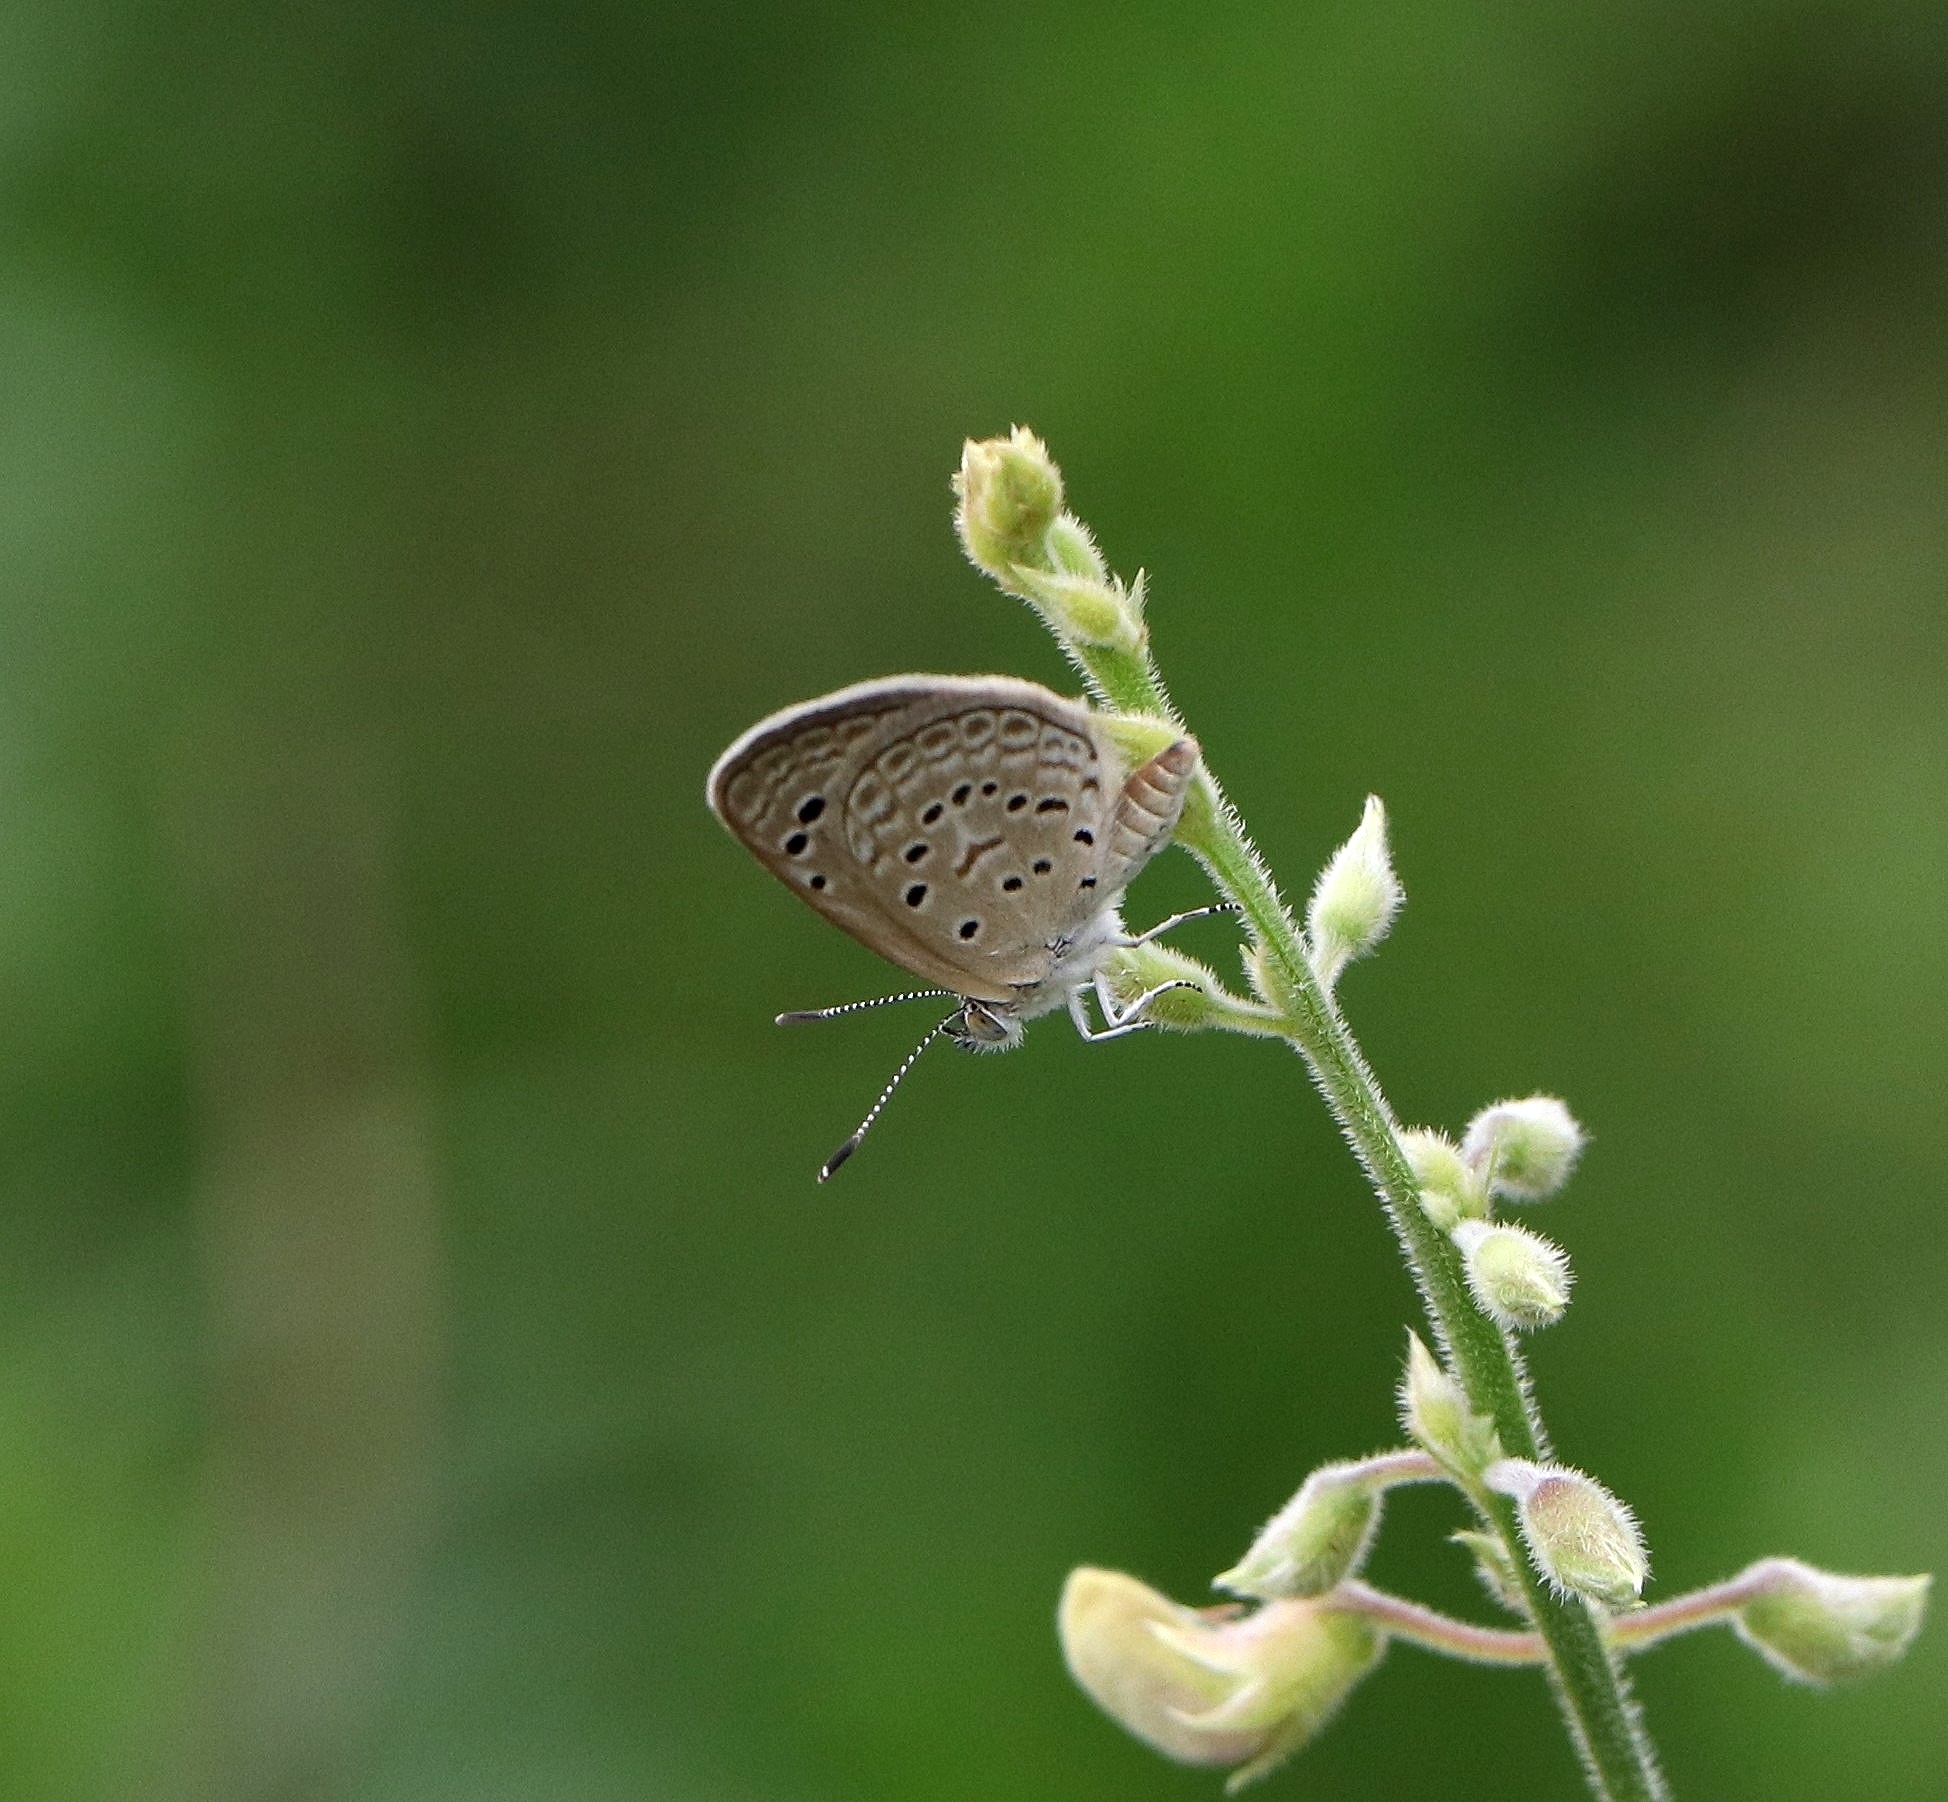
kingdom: Animalia
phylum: Arthropoda
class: Insecta
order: Lepidoptera
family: Lycaenidae
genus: Zizeeria
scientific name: Zizeeria karsandra
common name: Dark grass blue
